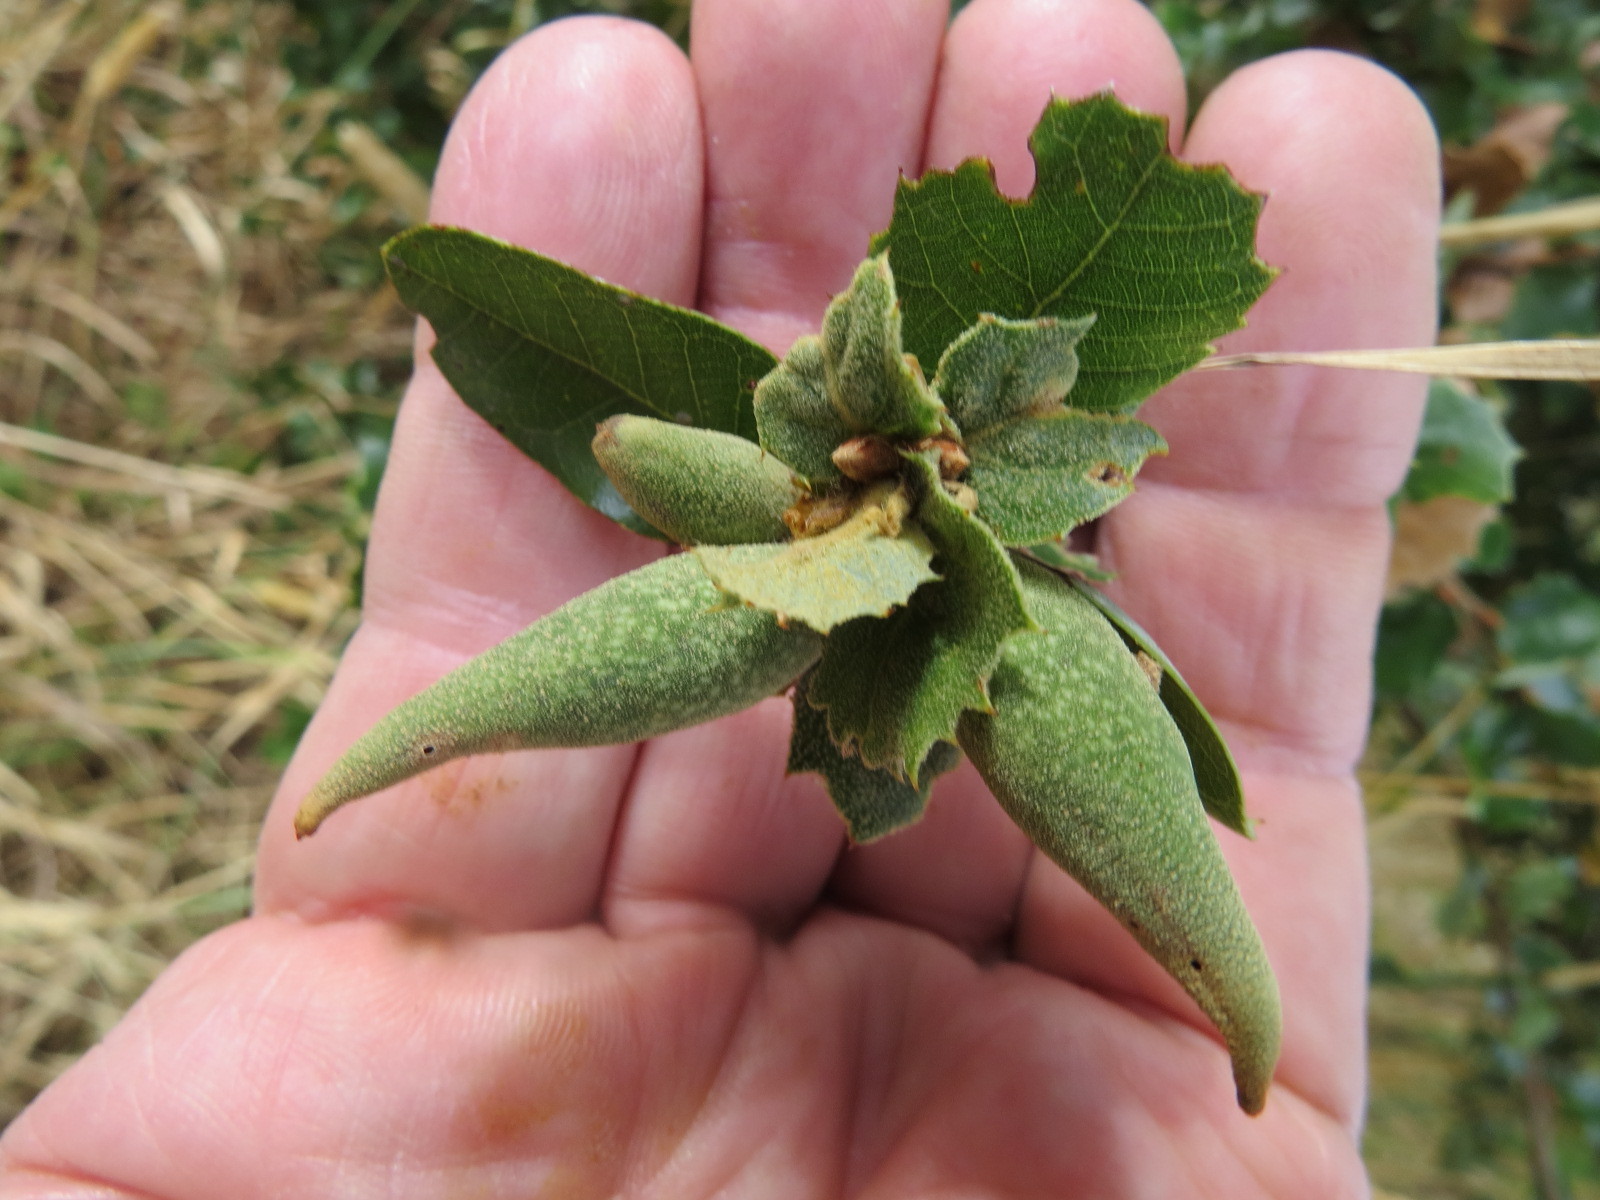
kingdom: Animalia
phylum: Arthropoda
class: Insecta
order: Hymenoptera
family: Cynipidae
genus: Heteroecus
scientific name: Heteroecus pacificus
